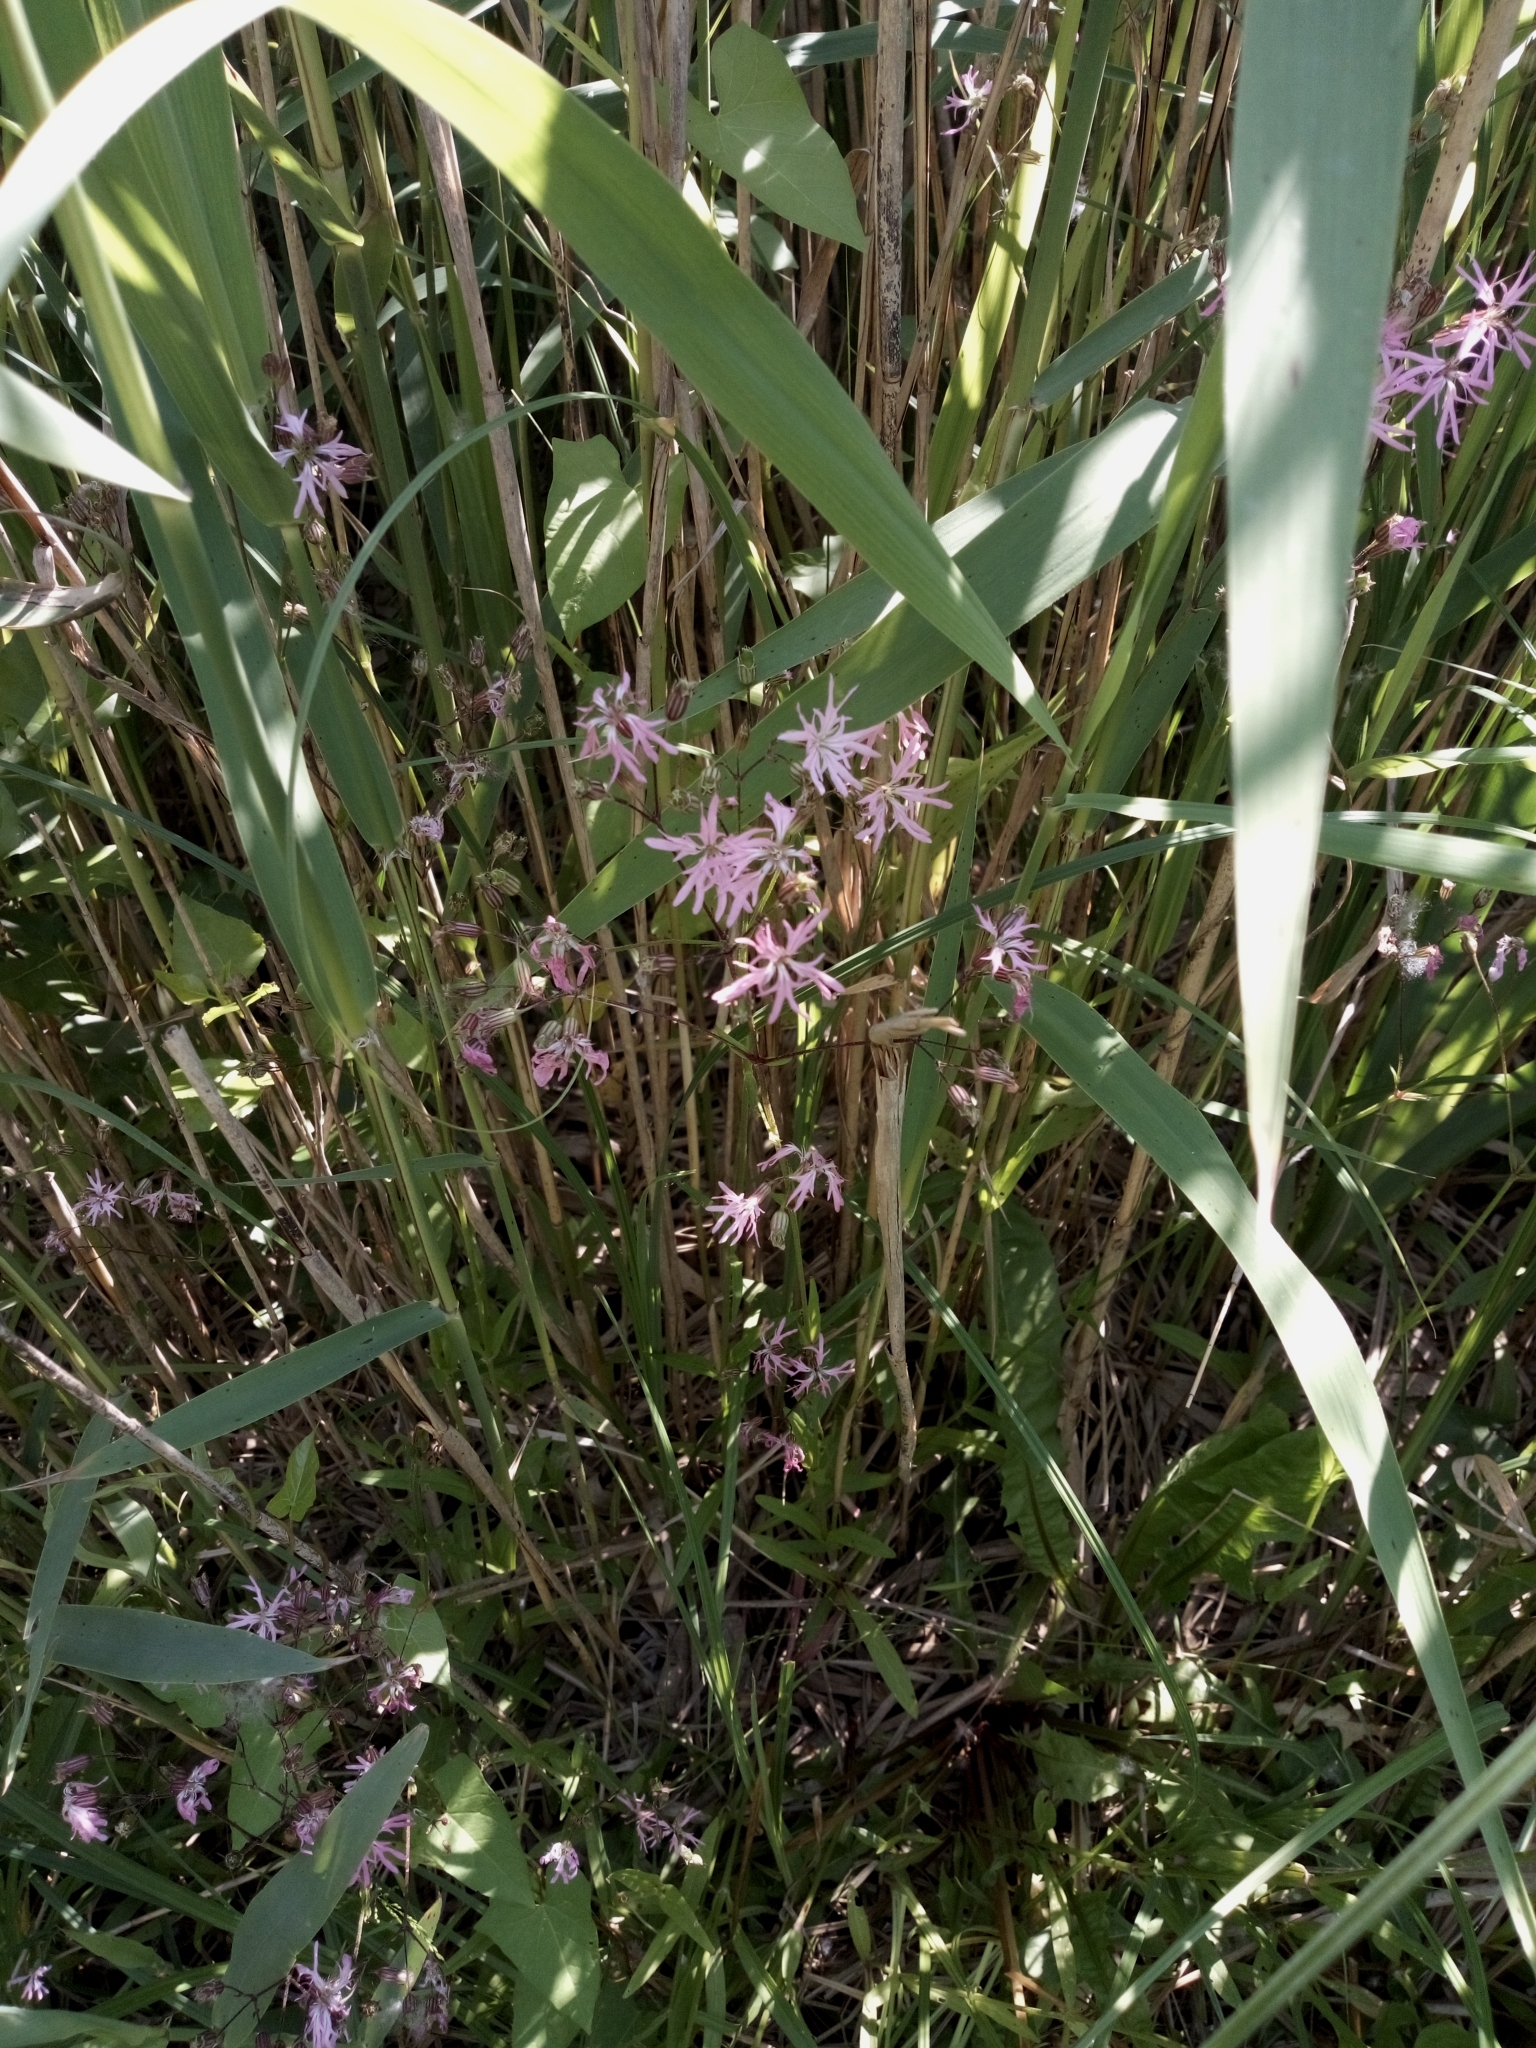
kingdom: Plantae
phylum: Tracheophyta
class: Magnoliopsida
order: Caryophyllales
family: Caryophyllaceae
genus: Silene
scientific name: Silene flos-cuculi
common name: Ragged-robin
